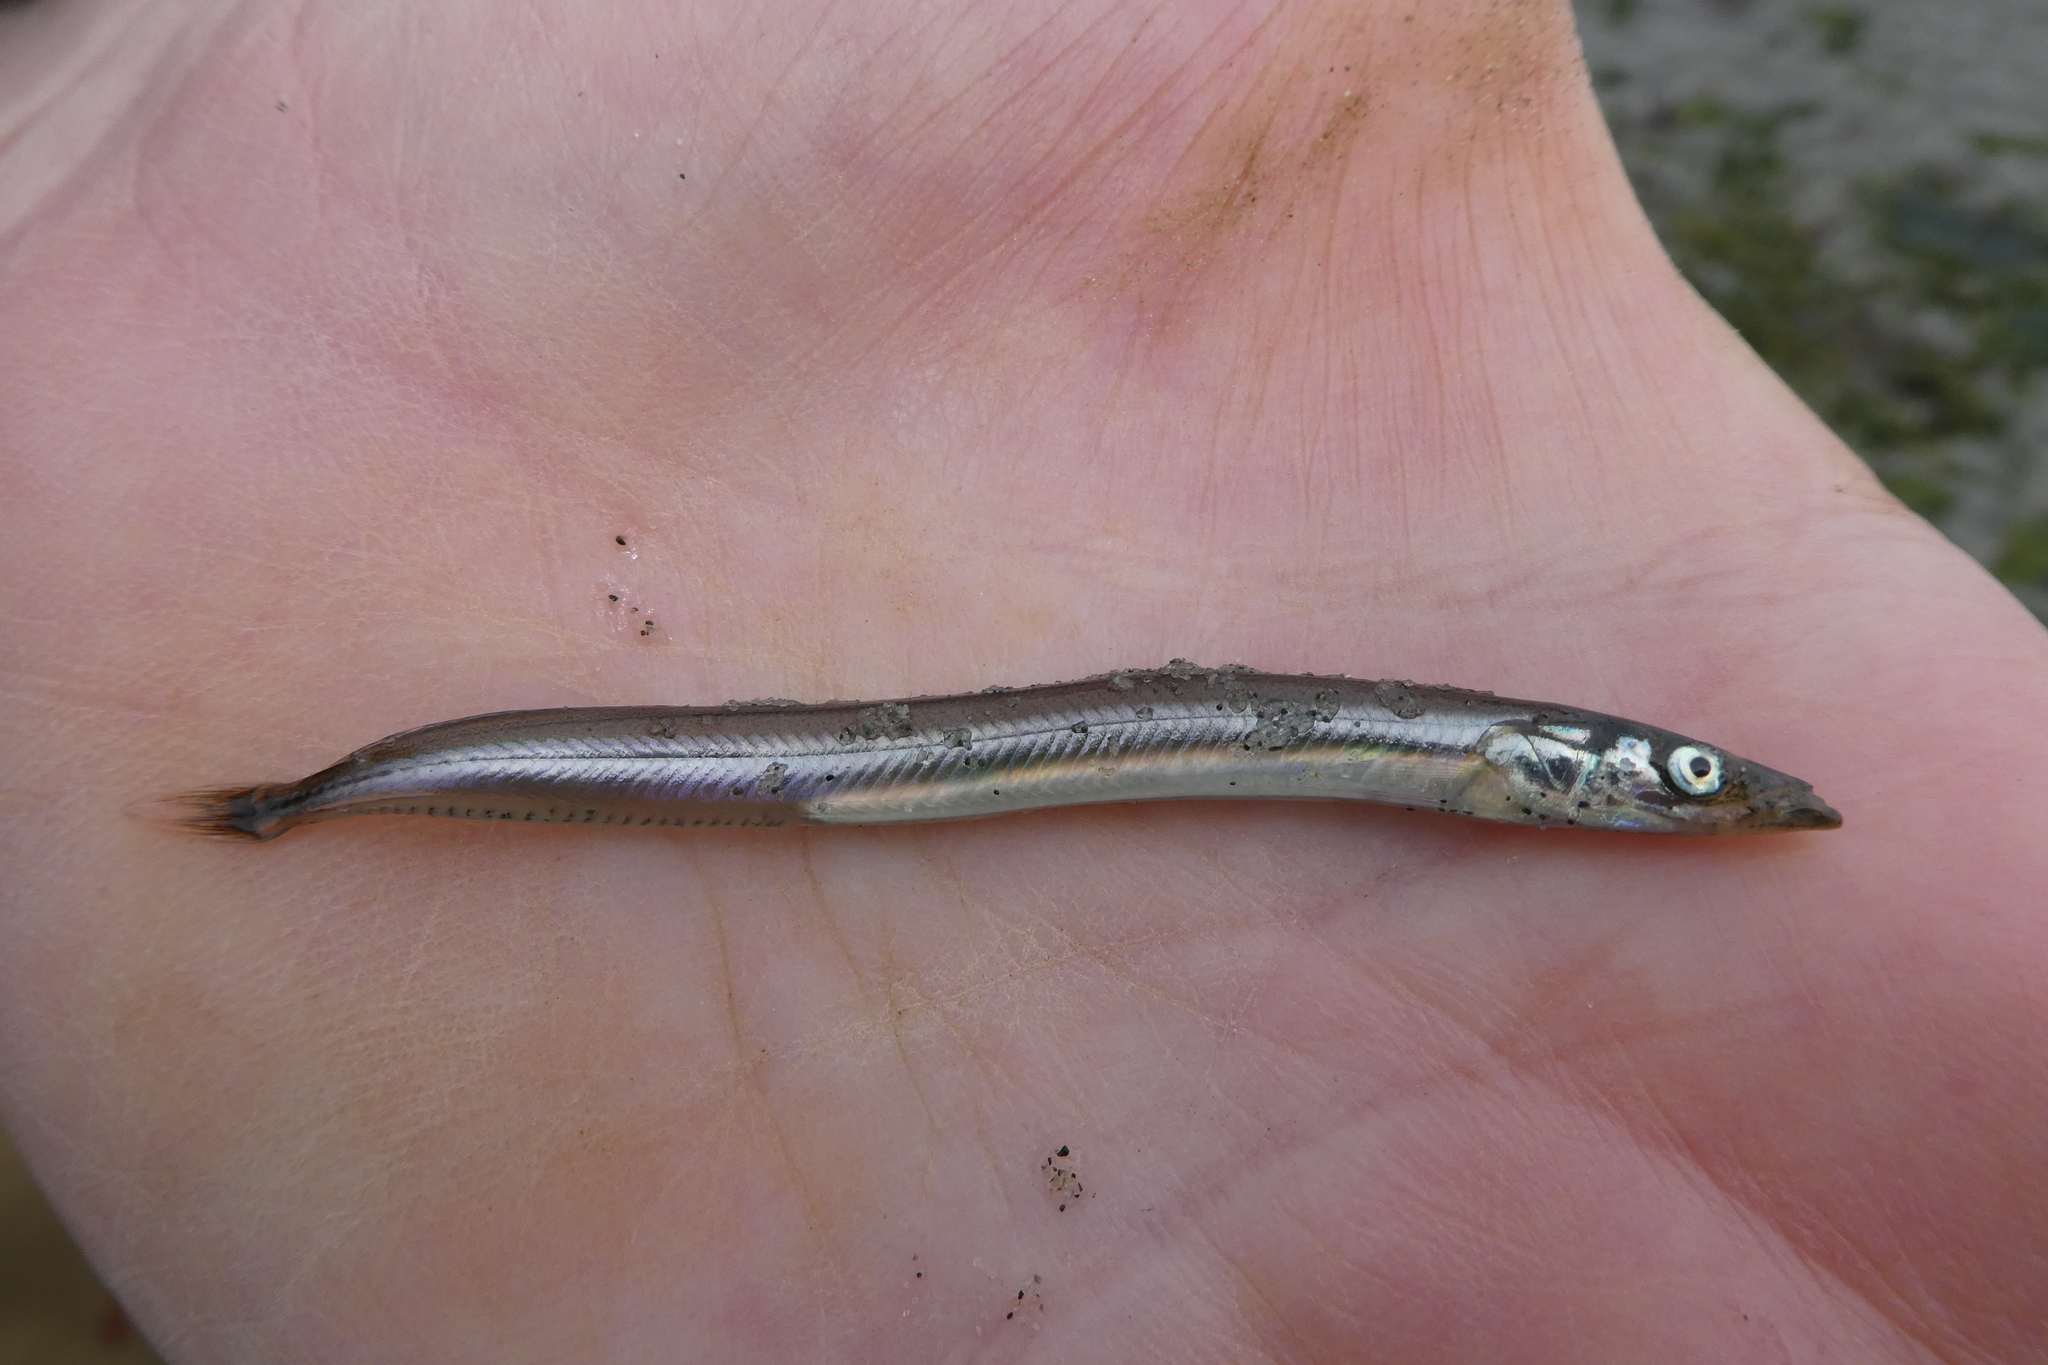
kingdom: Animalia
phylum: Chordata
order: Perciformes
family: Ammodytidae
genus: Ammodytes
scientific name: Ammodytes personatus
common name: Japanese sand lance
